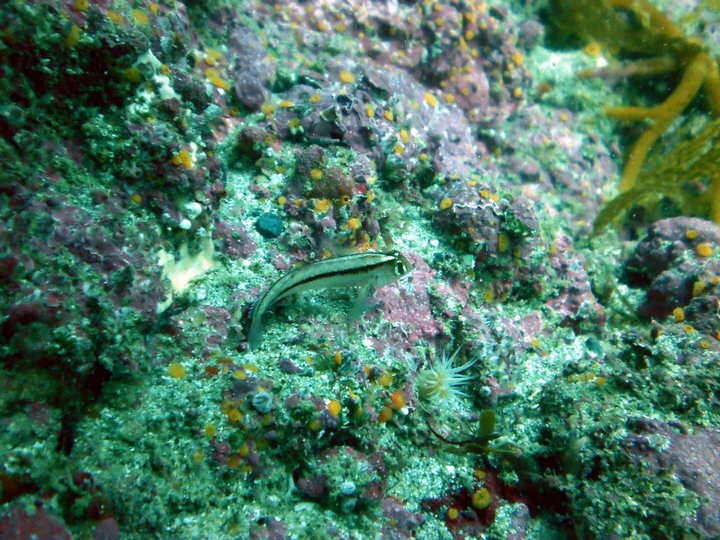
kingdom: Animalia
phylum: Chordata
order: Perciformes
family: Tripterygiidae
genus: Forsterygion
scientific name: Forsterygion lapillum
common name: Common triplefin
